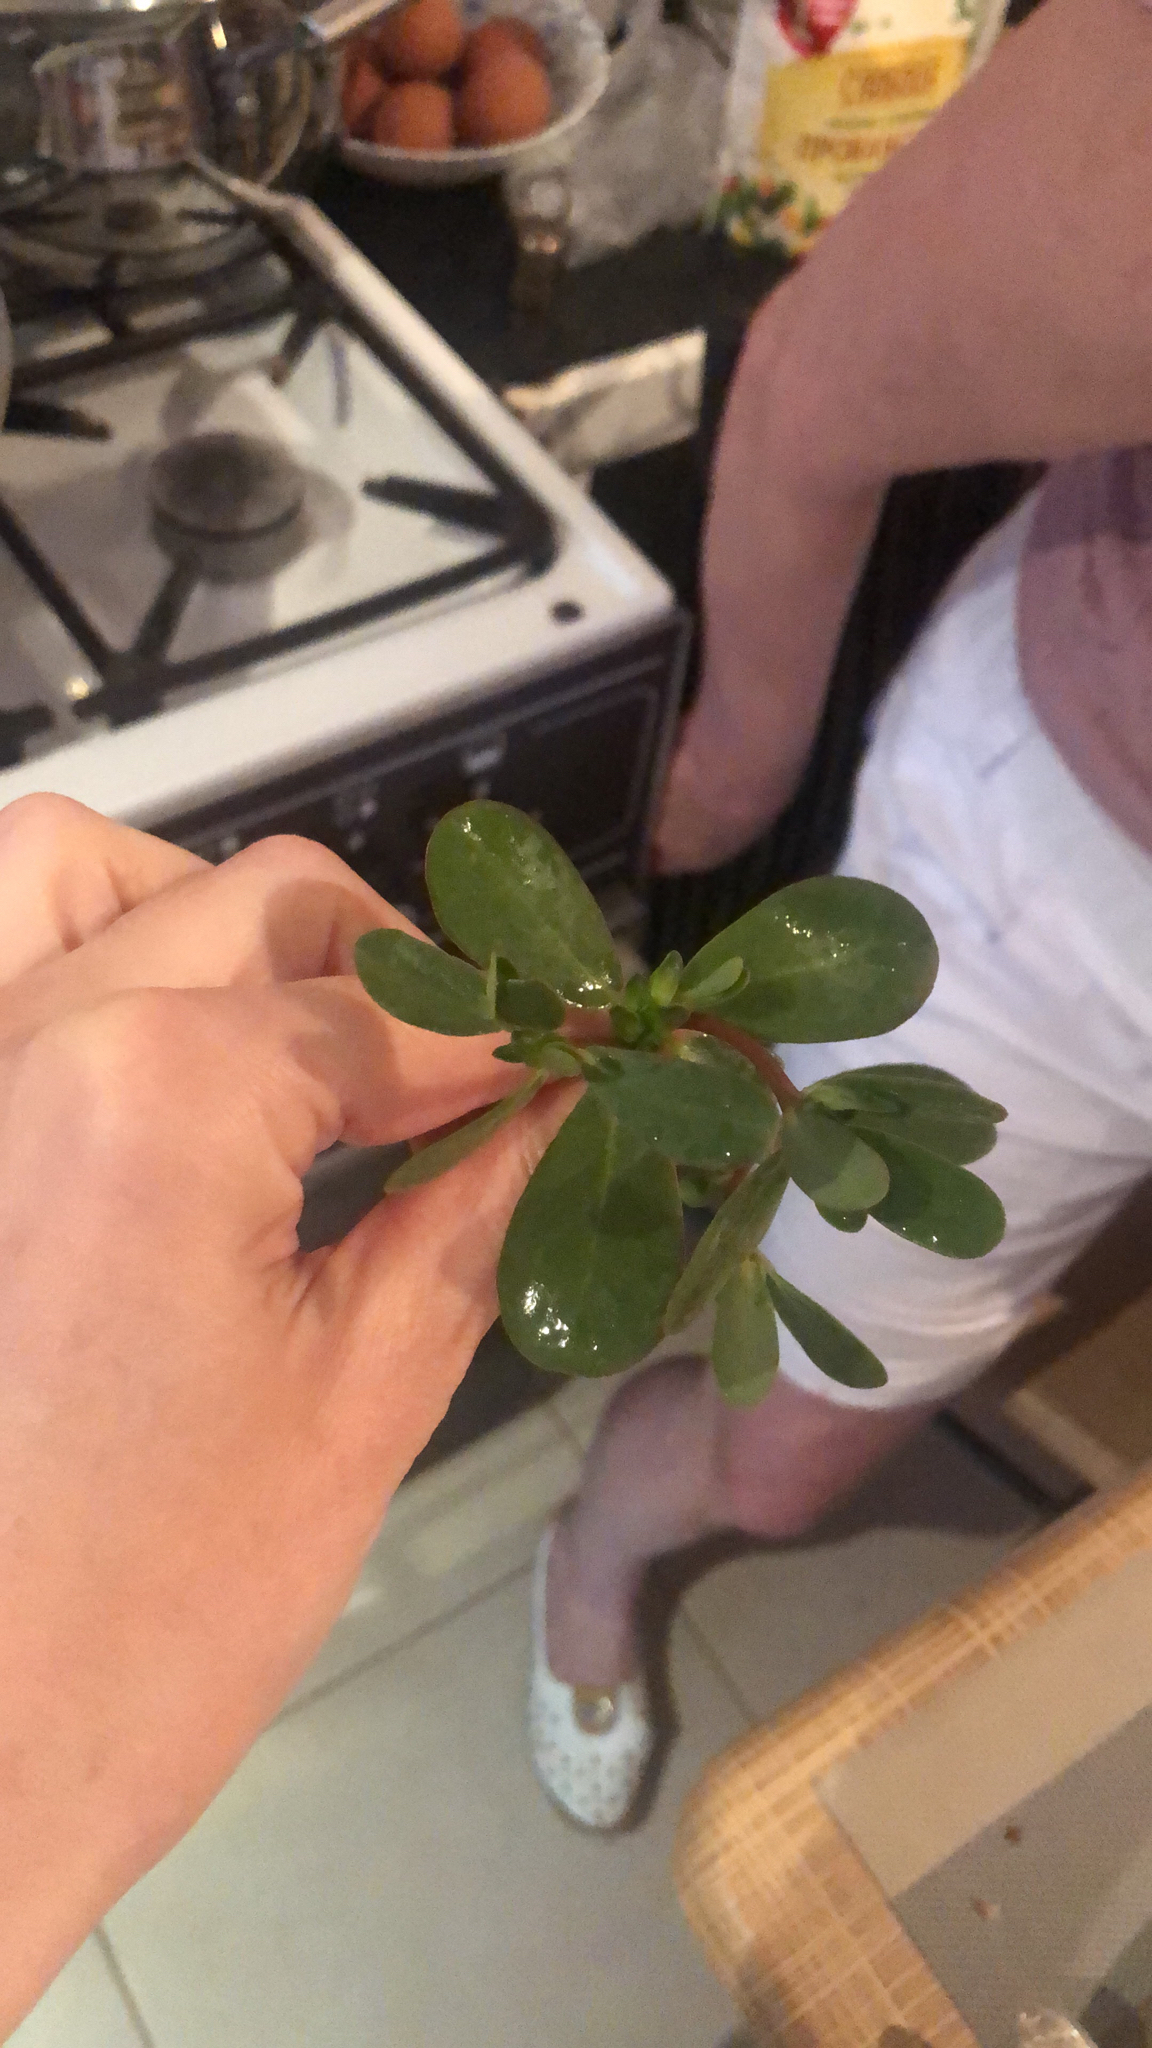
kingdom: Plantae
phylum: Tracheophyta
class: Magnoliopsida
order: Caryophyllales
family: Portulacaceae
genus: Portulaca
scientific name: Portulaca oleracea
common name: Common purslane
